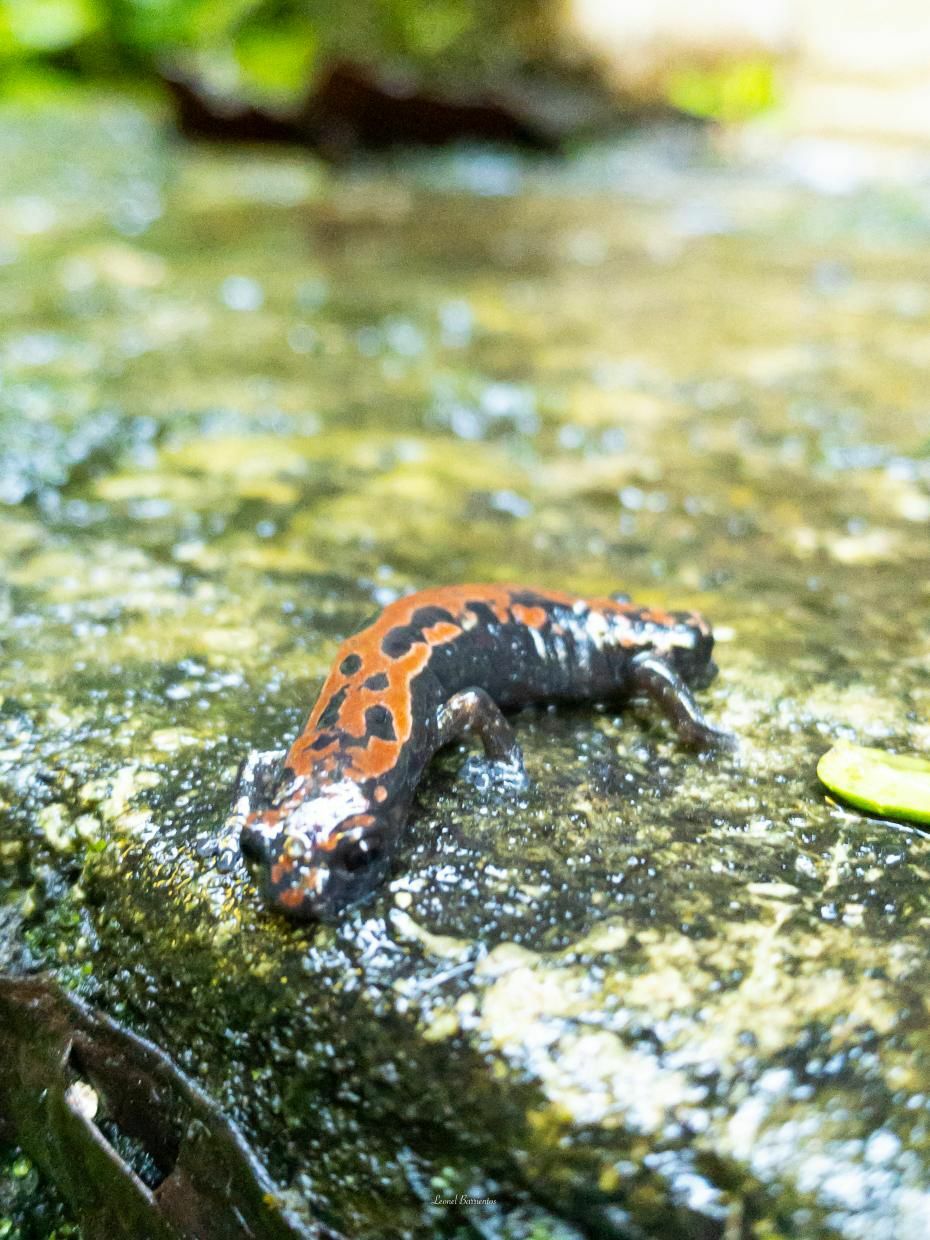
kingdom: Animalia
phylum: Chordata
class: Amphibia
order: Caudata
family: Plethodontidae
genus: Bolitoglossa
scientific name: Bolitoglossa lincolni
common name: Lincoln's mushroomtongue salamander
